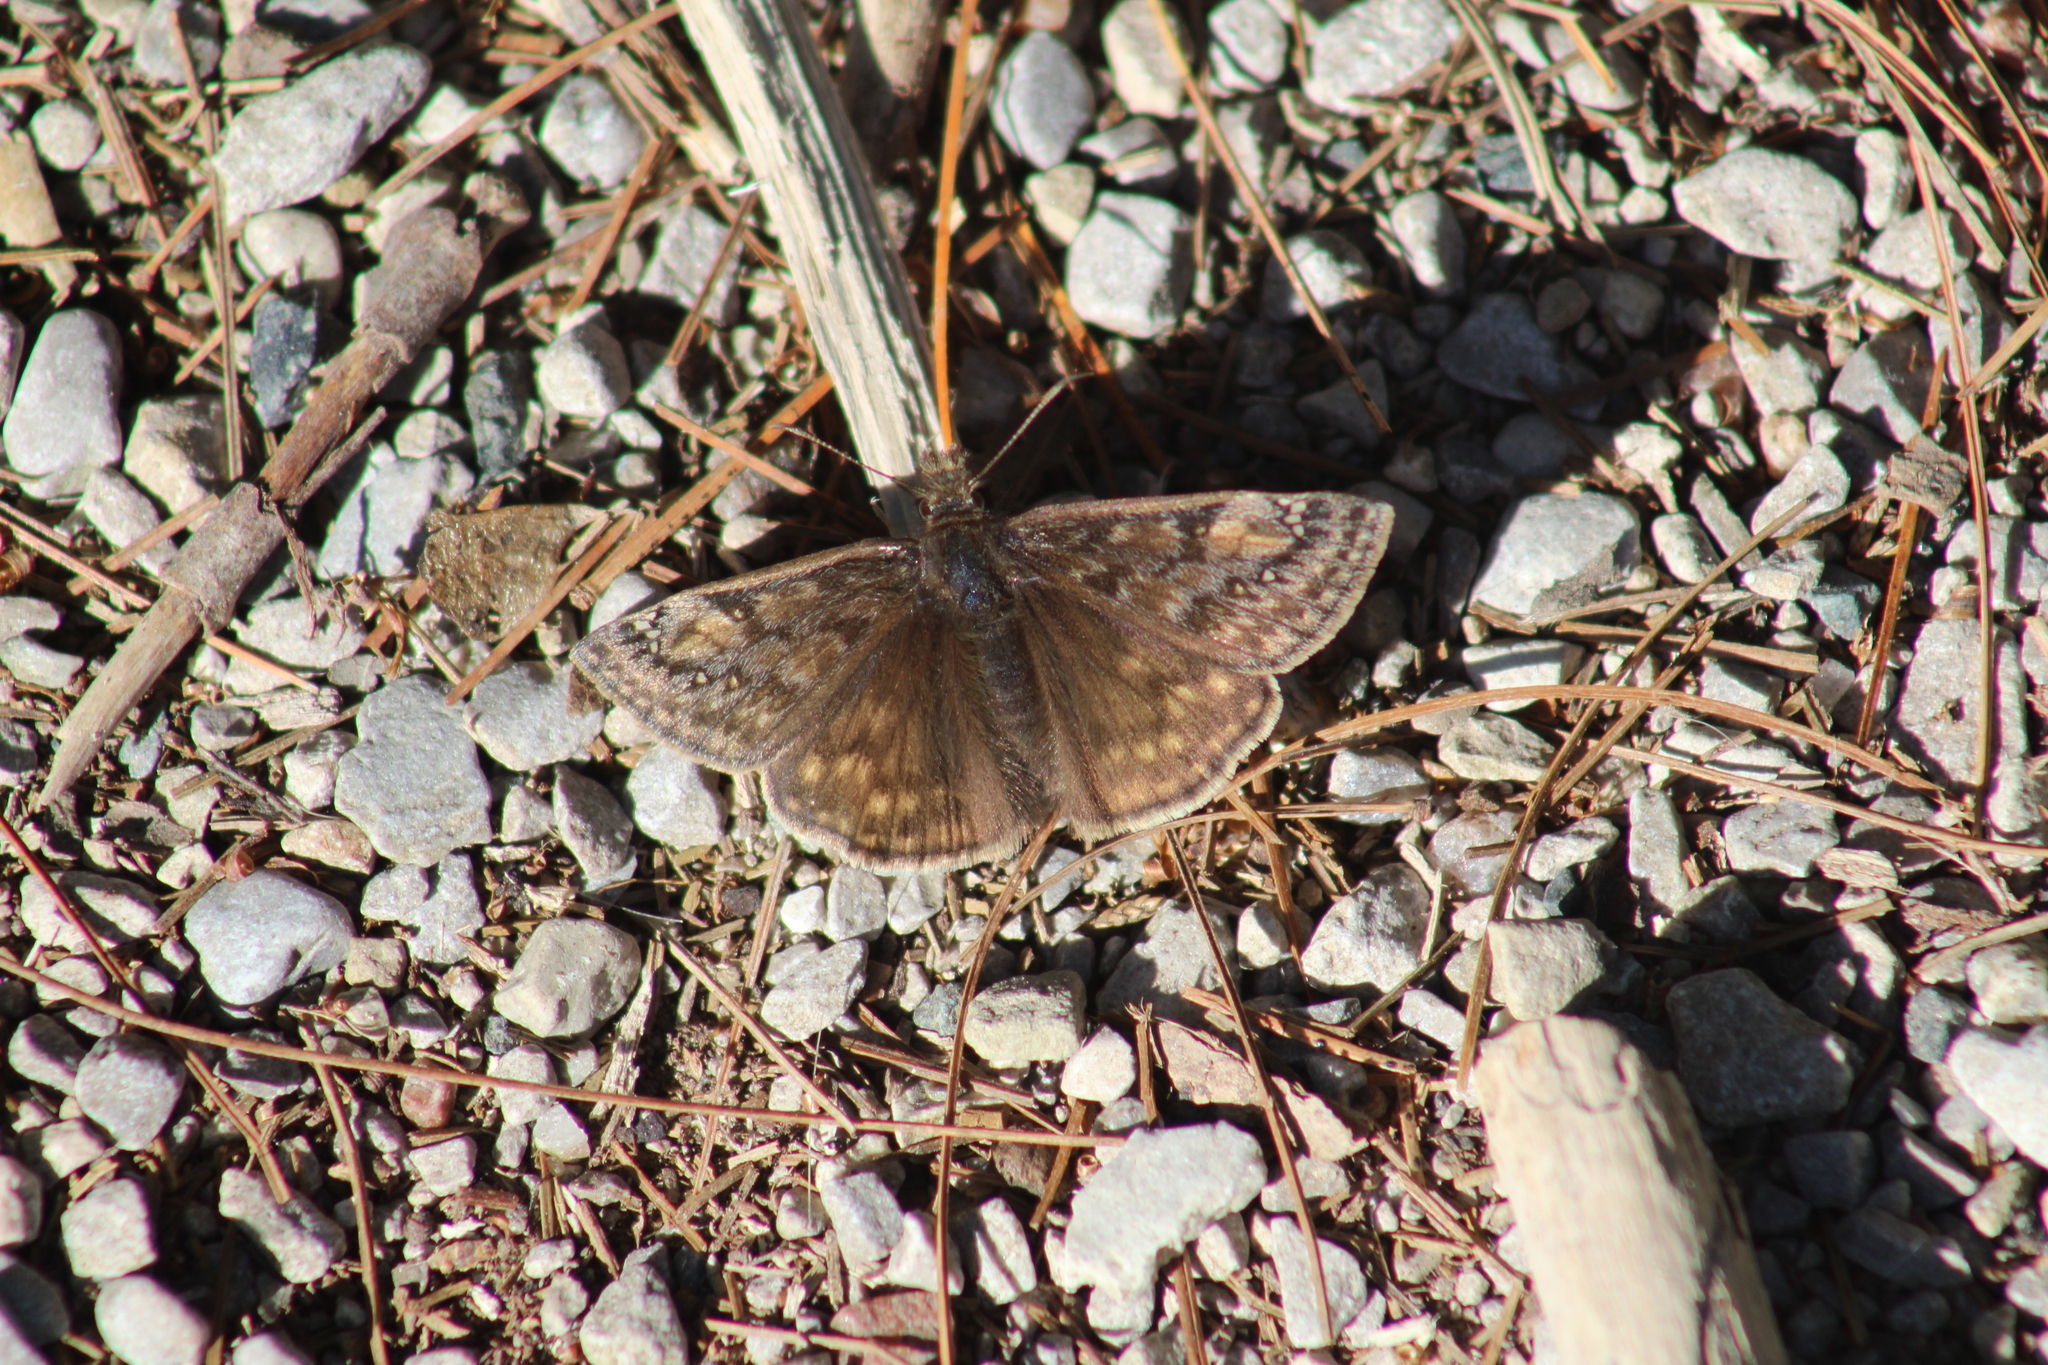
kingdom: Animalia
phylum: Arthropoda
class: Insecta
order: Lepidoptera
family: Hesperiidae
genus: Erynnis
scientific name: Erynnis juvenalis
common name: Juvenal's duskywing
